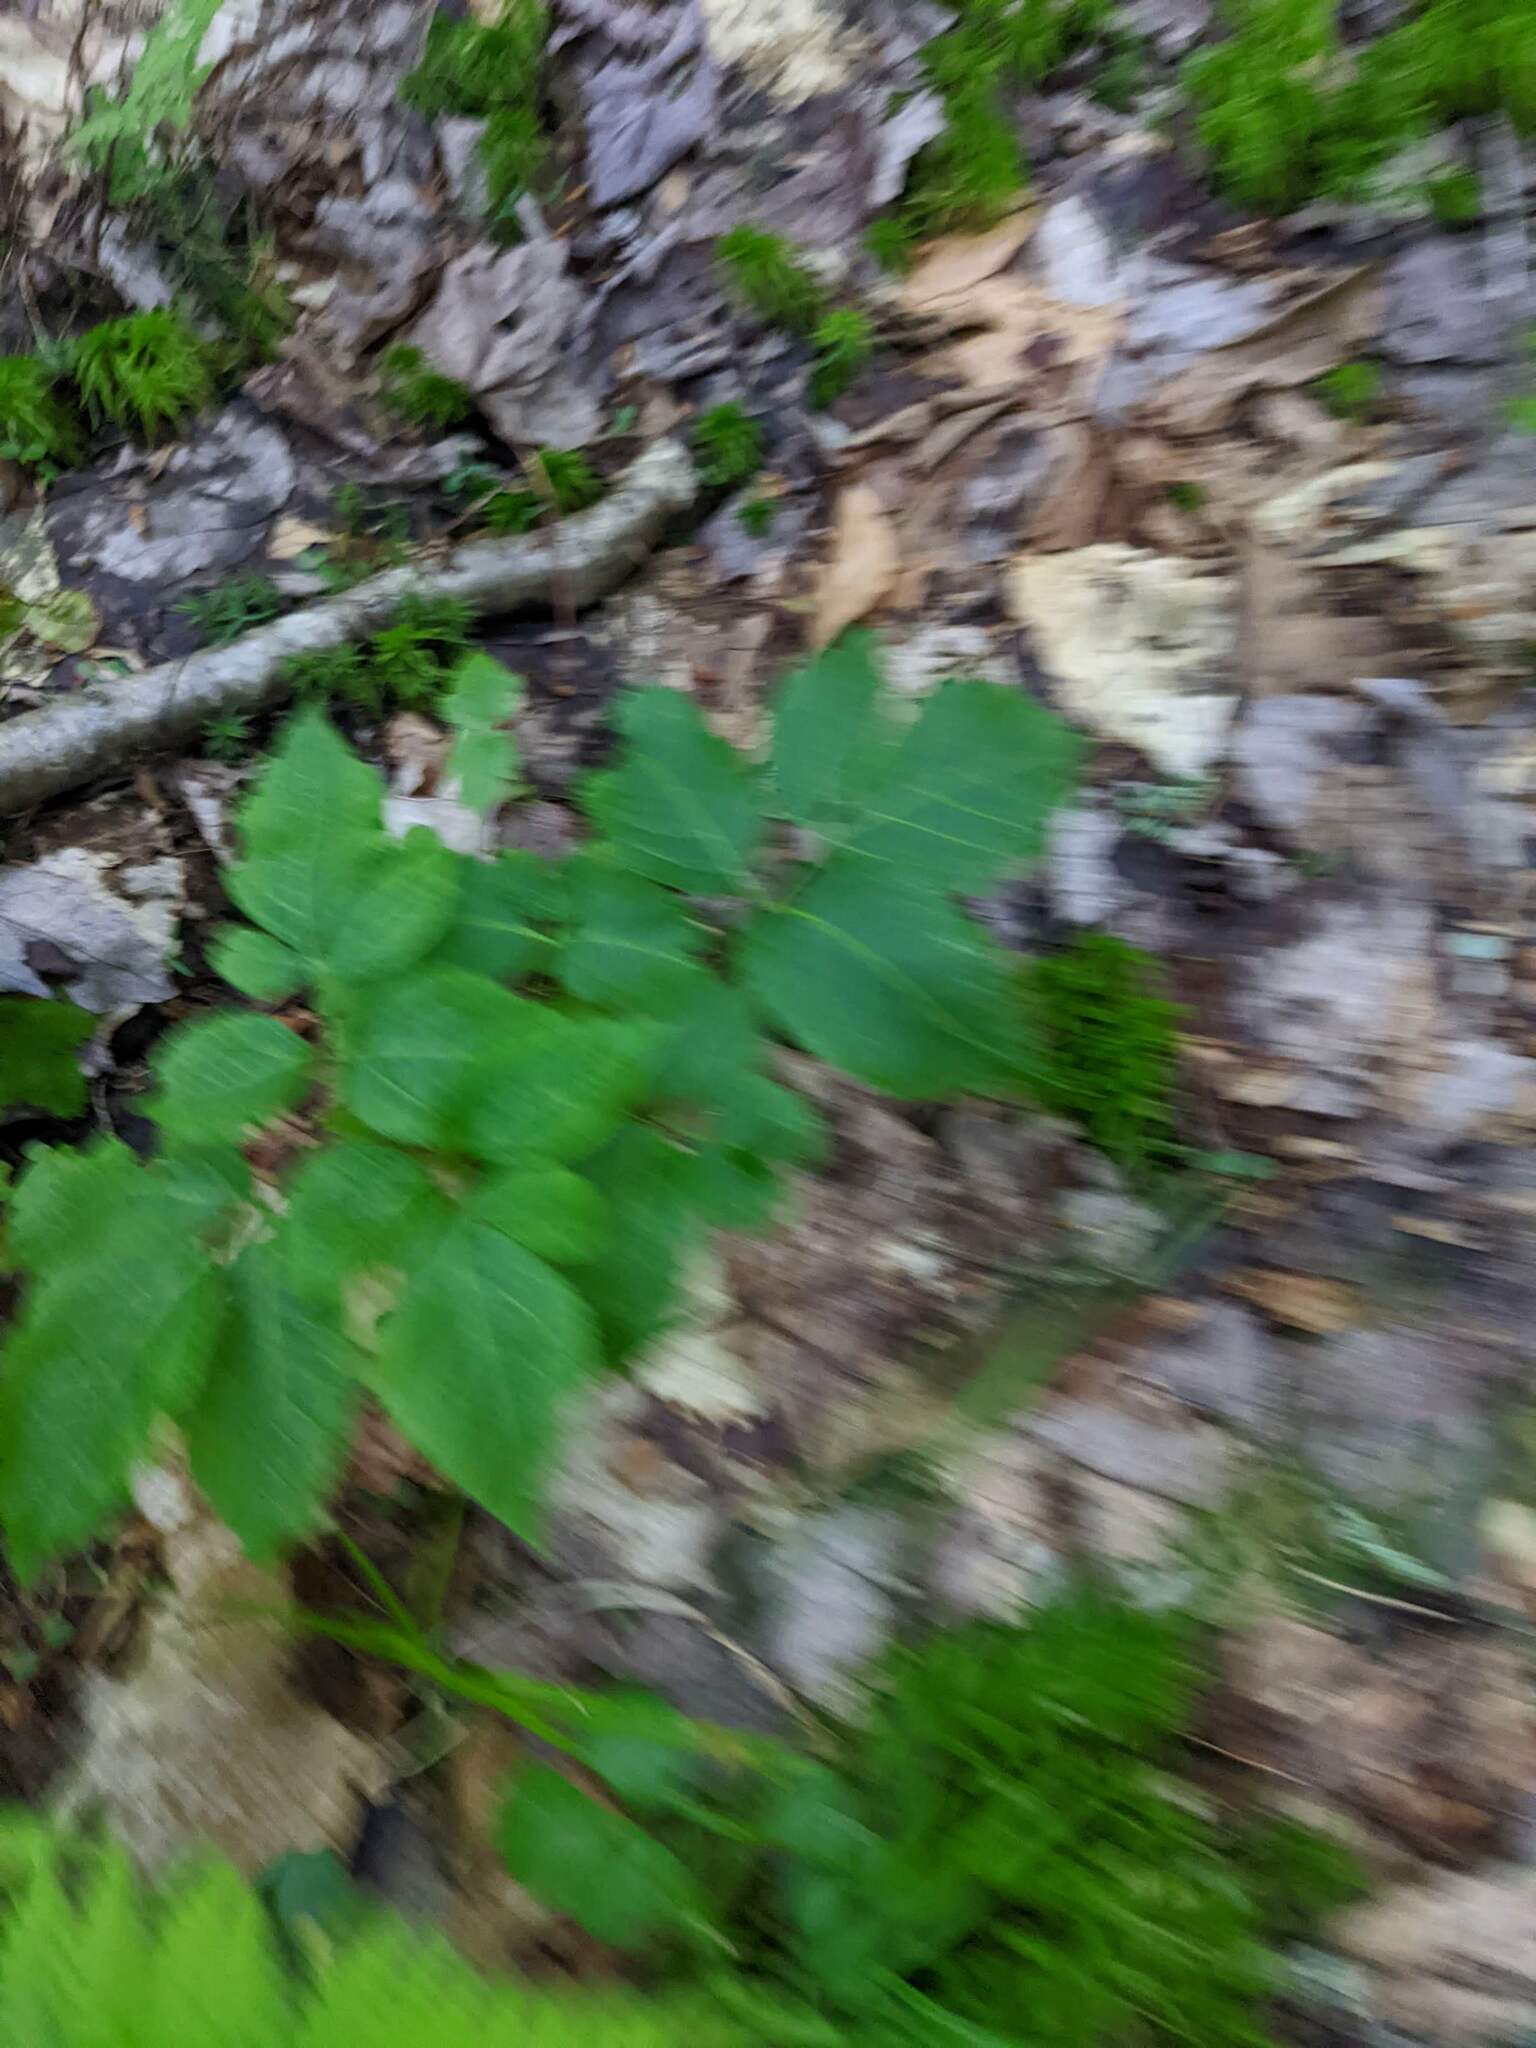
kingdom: Plantae
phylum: Tracheophyta
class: Magnoliopsida
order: Apiales
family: Araliaceae
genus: Aralia
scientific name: Aralia nudicaulis
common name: Wild sarsaparilla
